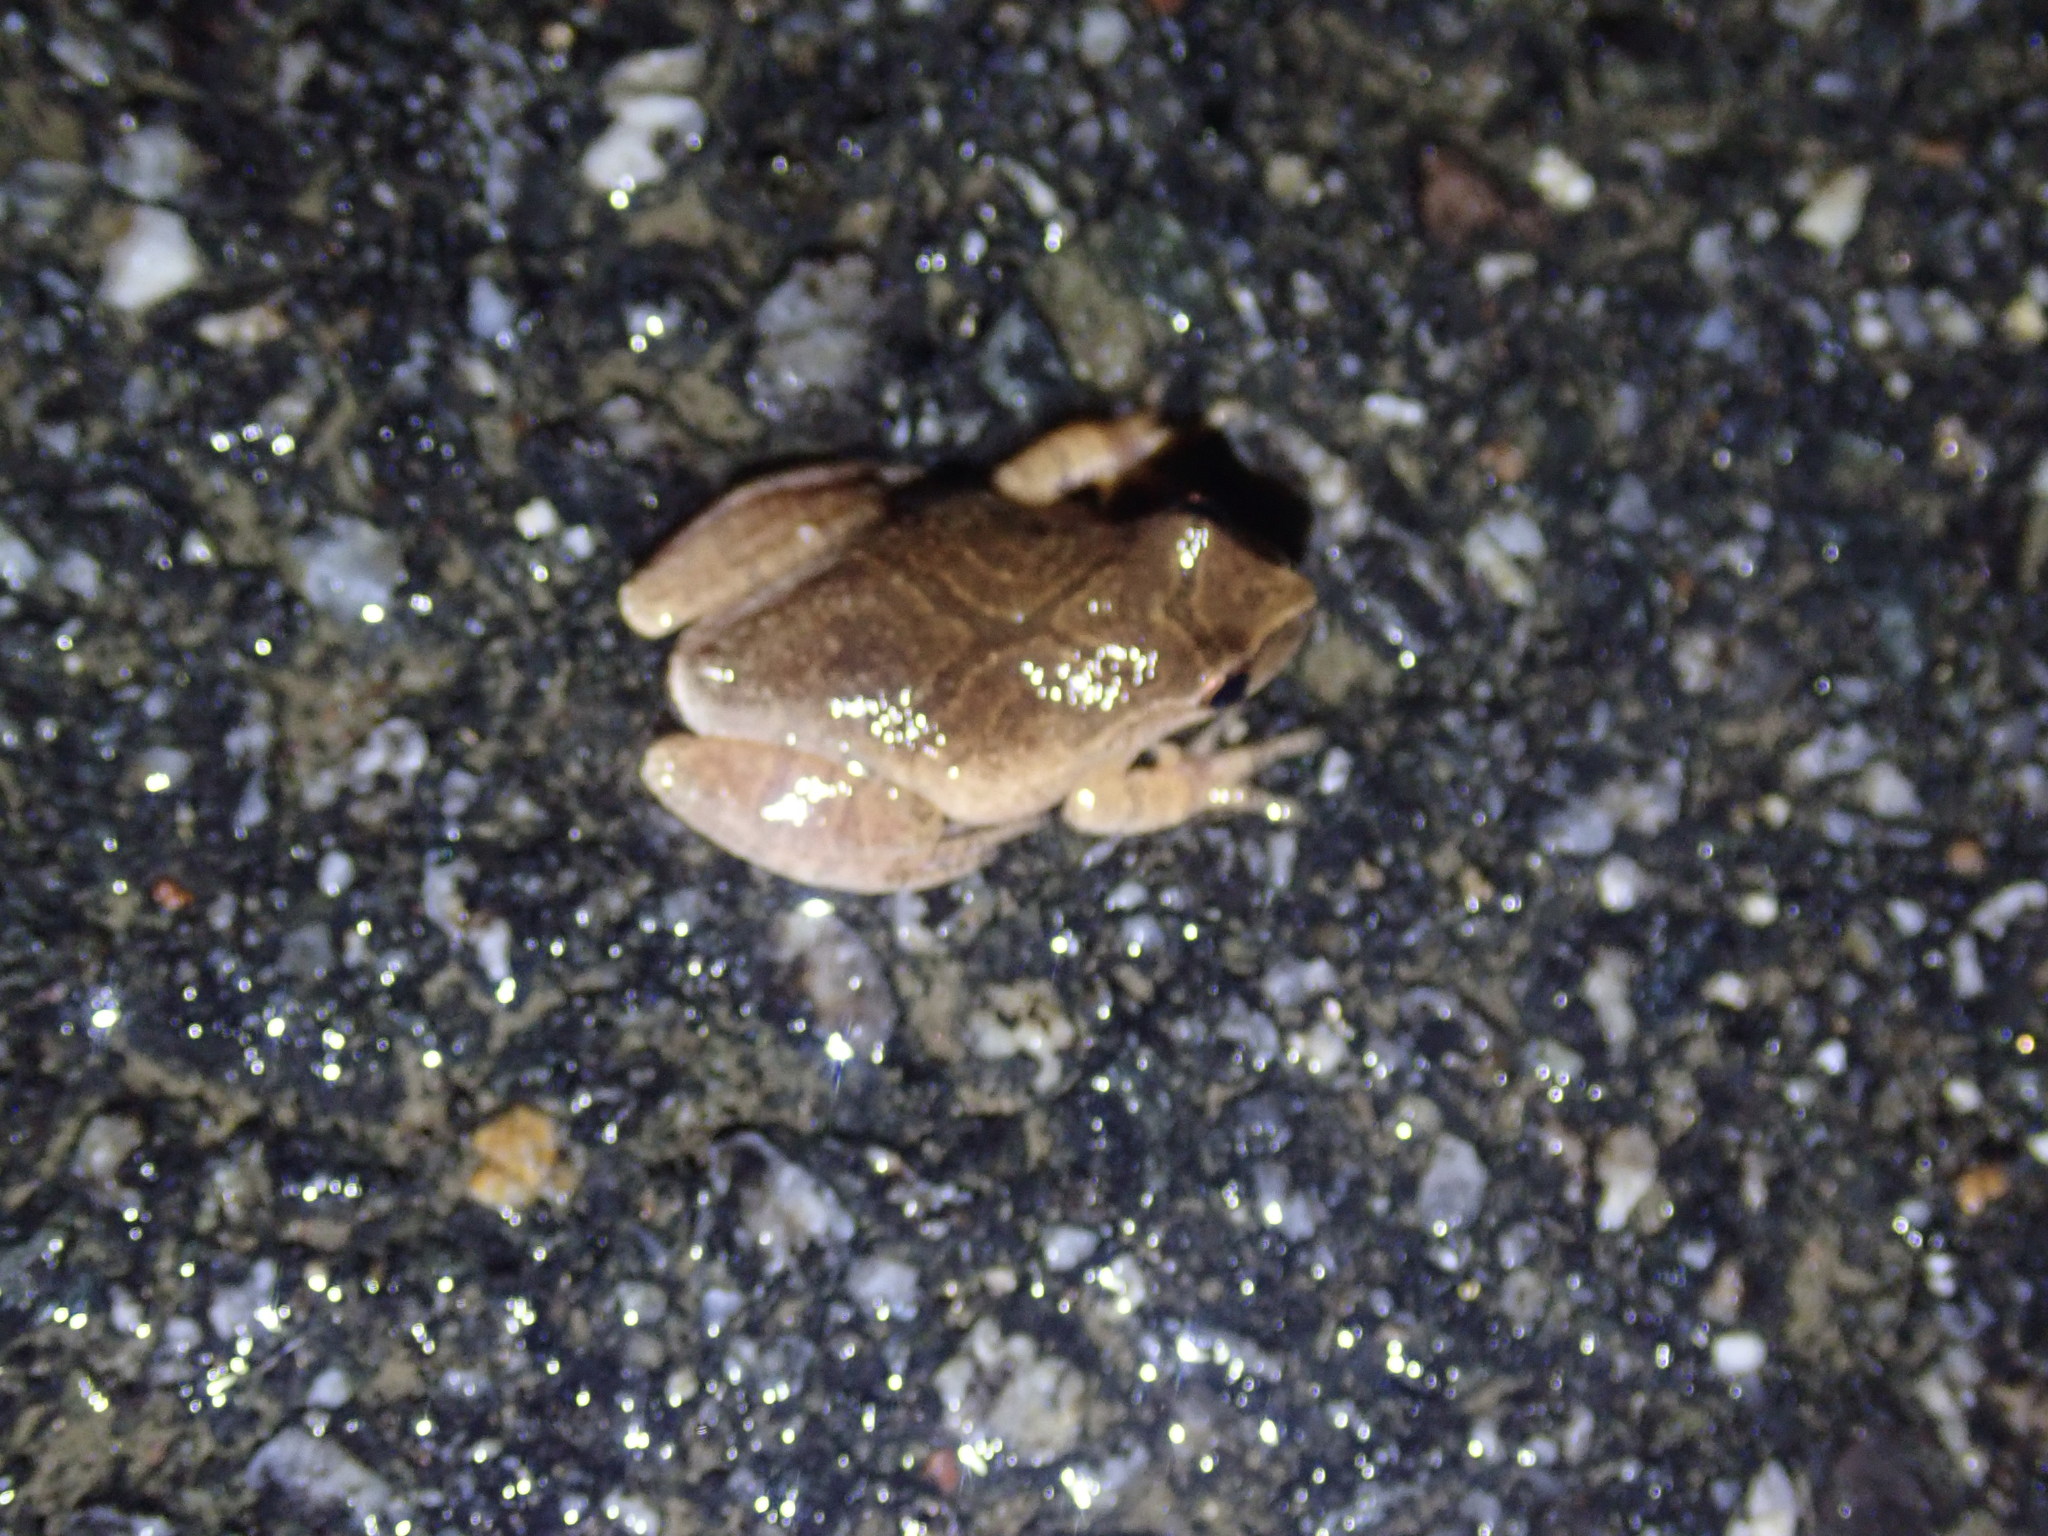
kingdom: Animalia
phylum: Chordata
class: Amphibia
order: Anura
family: Hylidae
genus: Pseudacris
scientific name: Pseudacris crucifer
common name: Spring peeper
